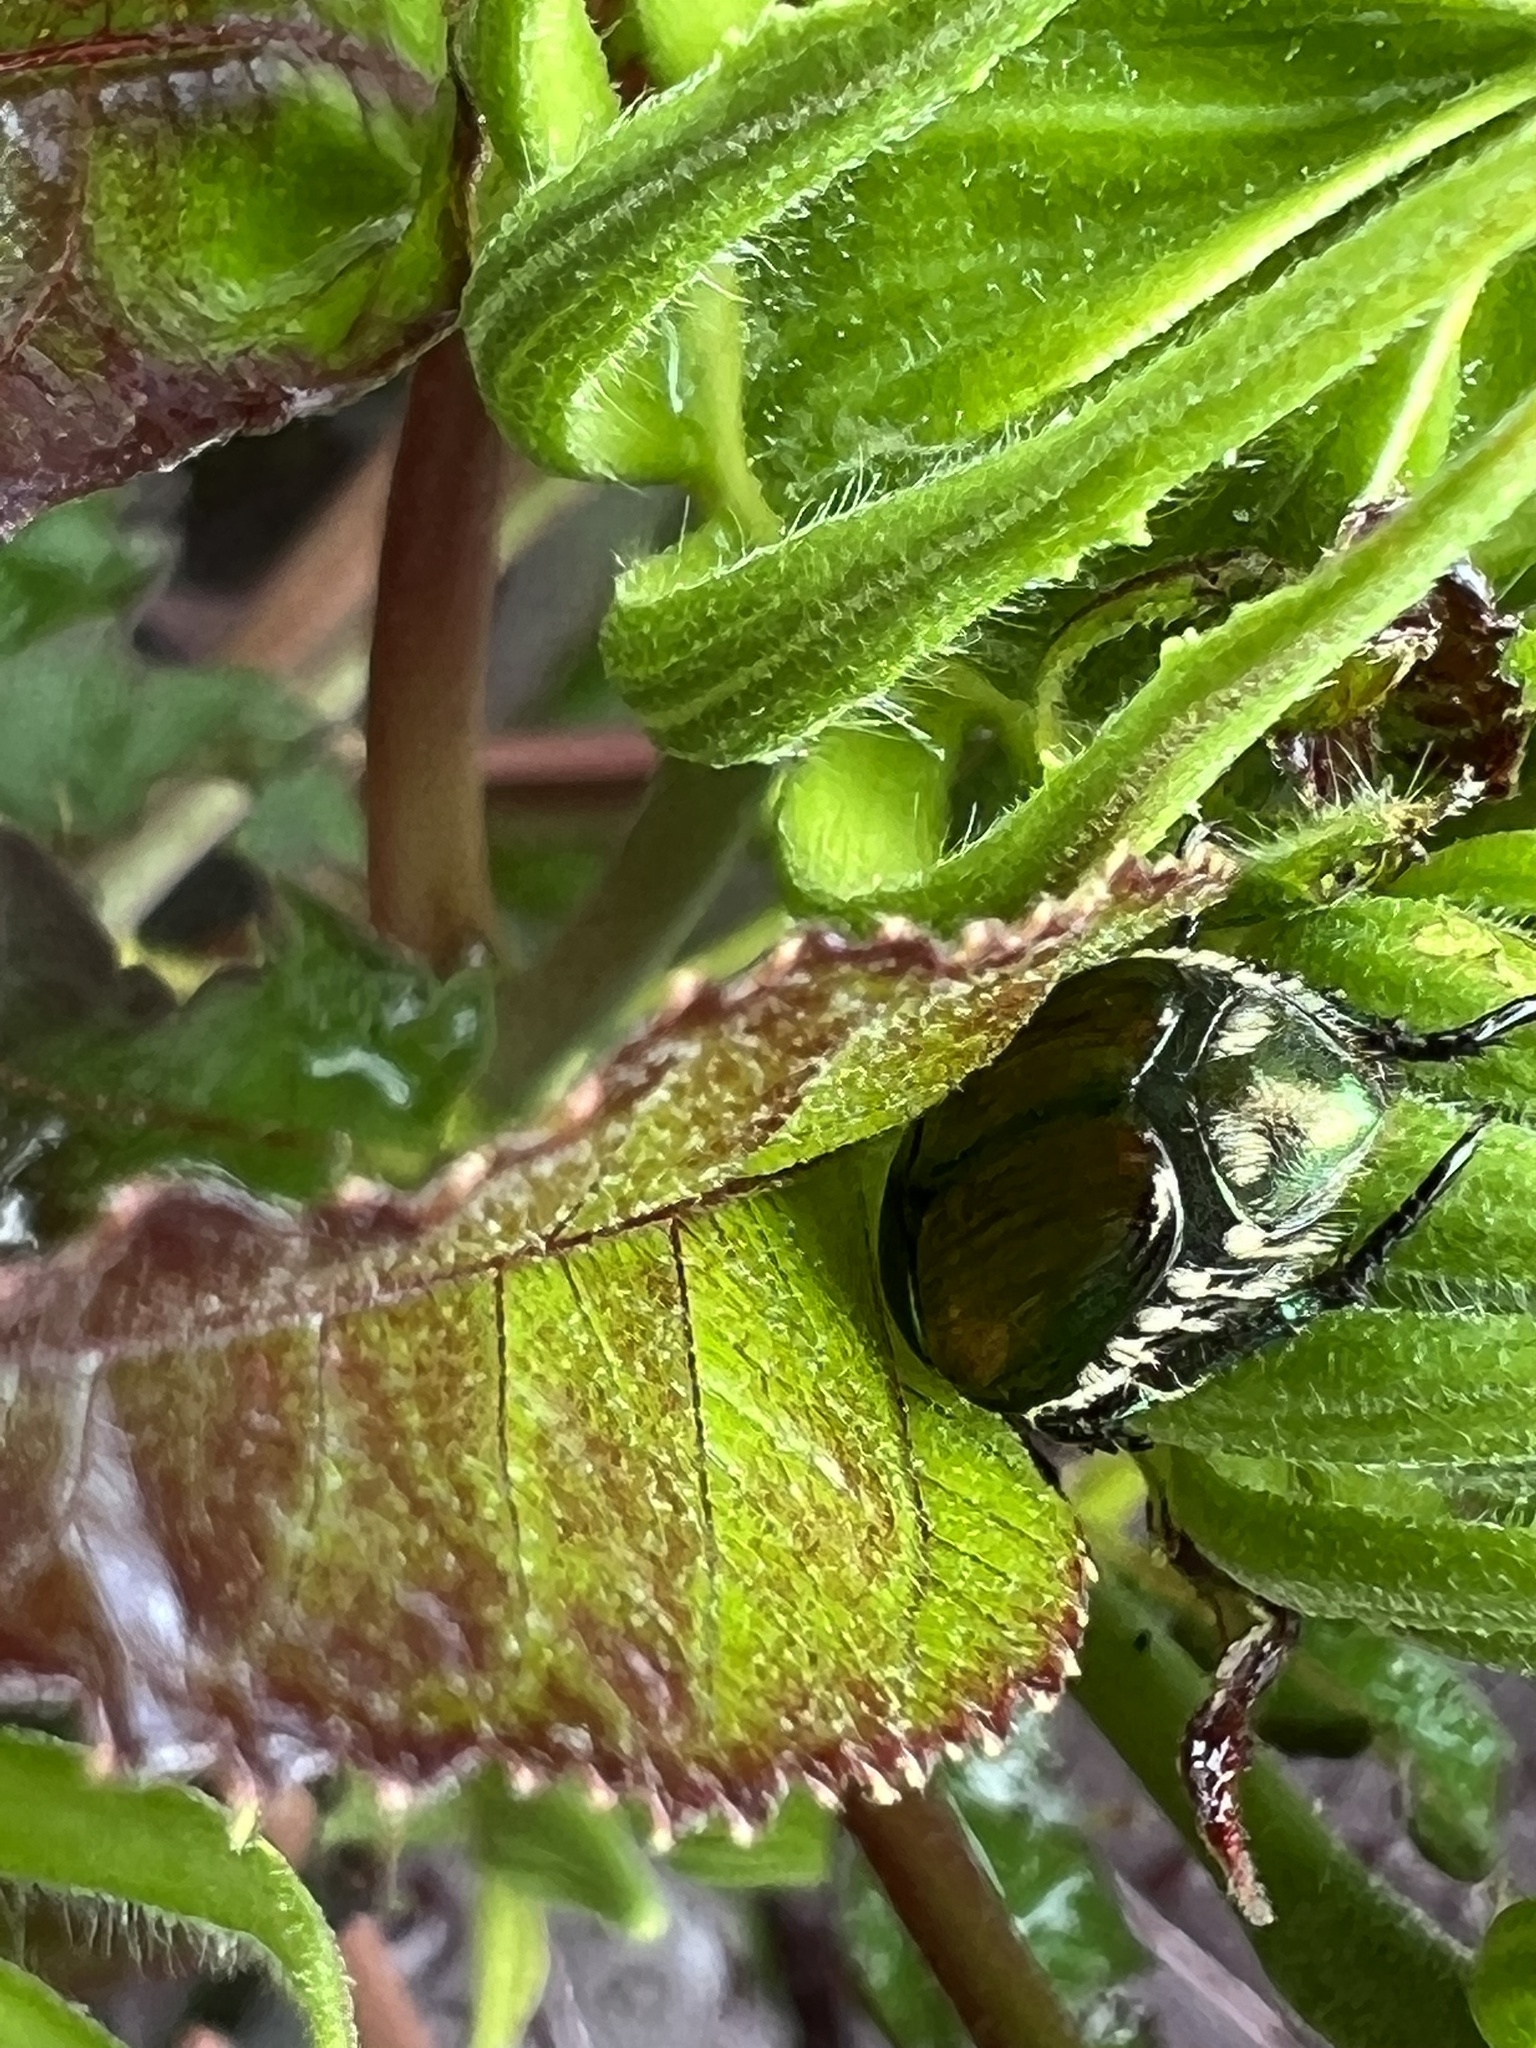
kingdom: Animalia
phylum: Arthropoda
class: Insecta
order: Coleoptera
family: Scarabaeidae
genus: Popillia
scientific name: Popillia japonica
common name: Japanese beetle
